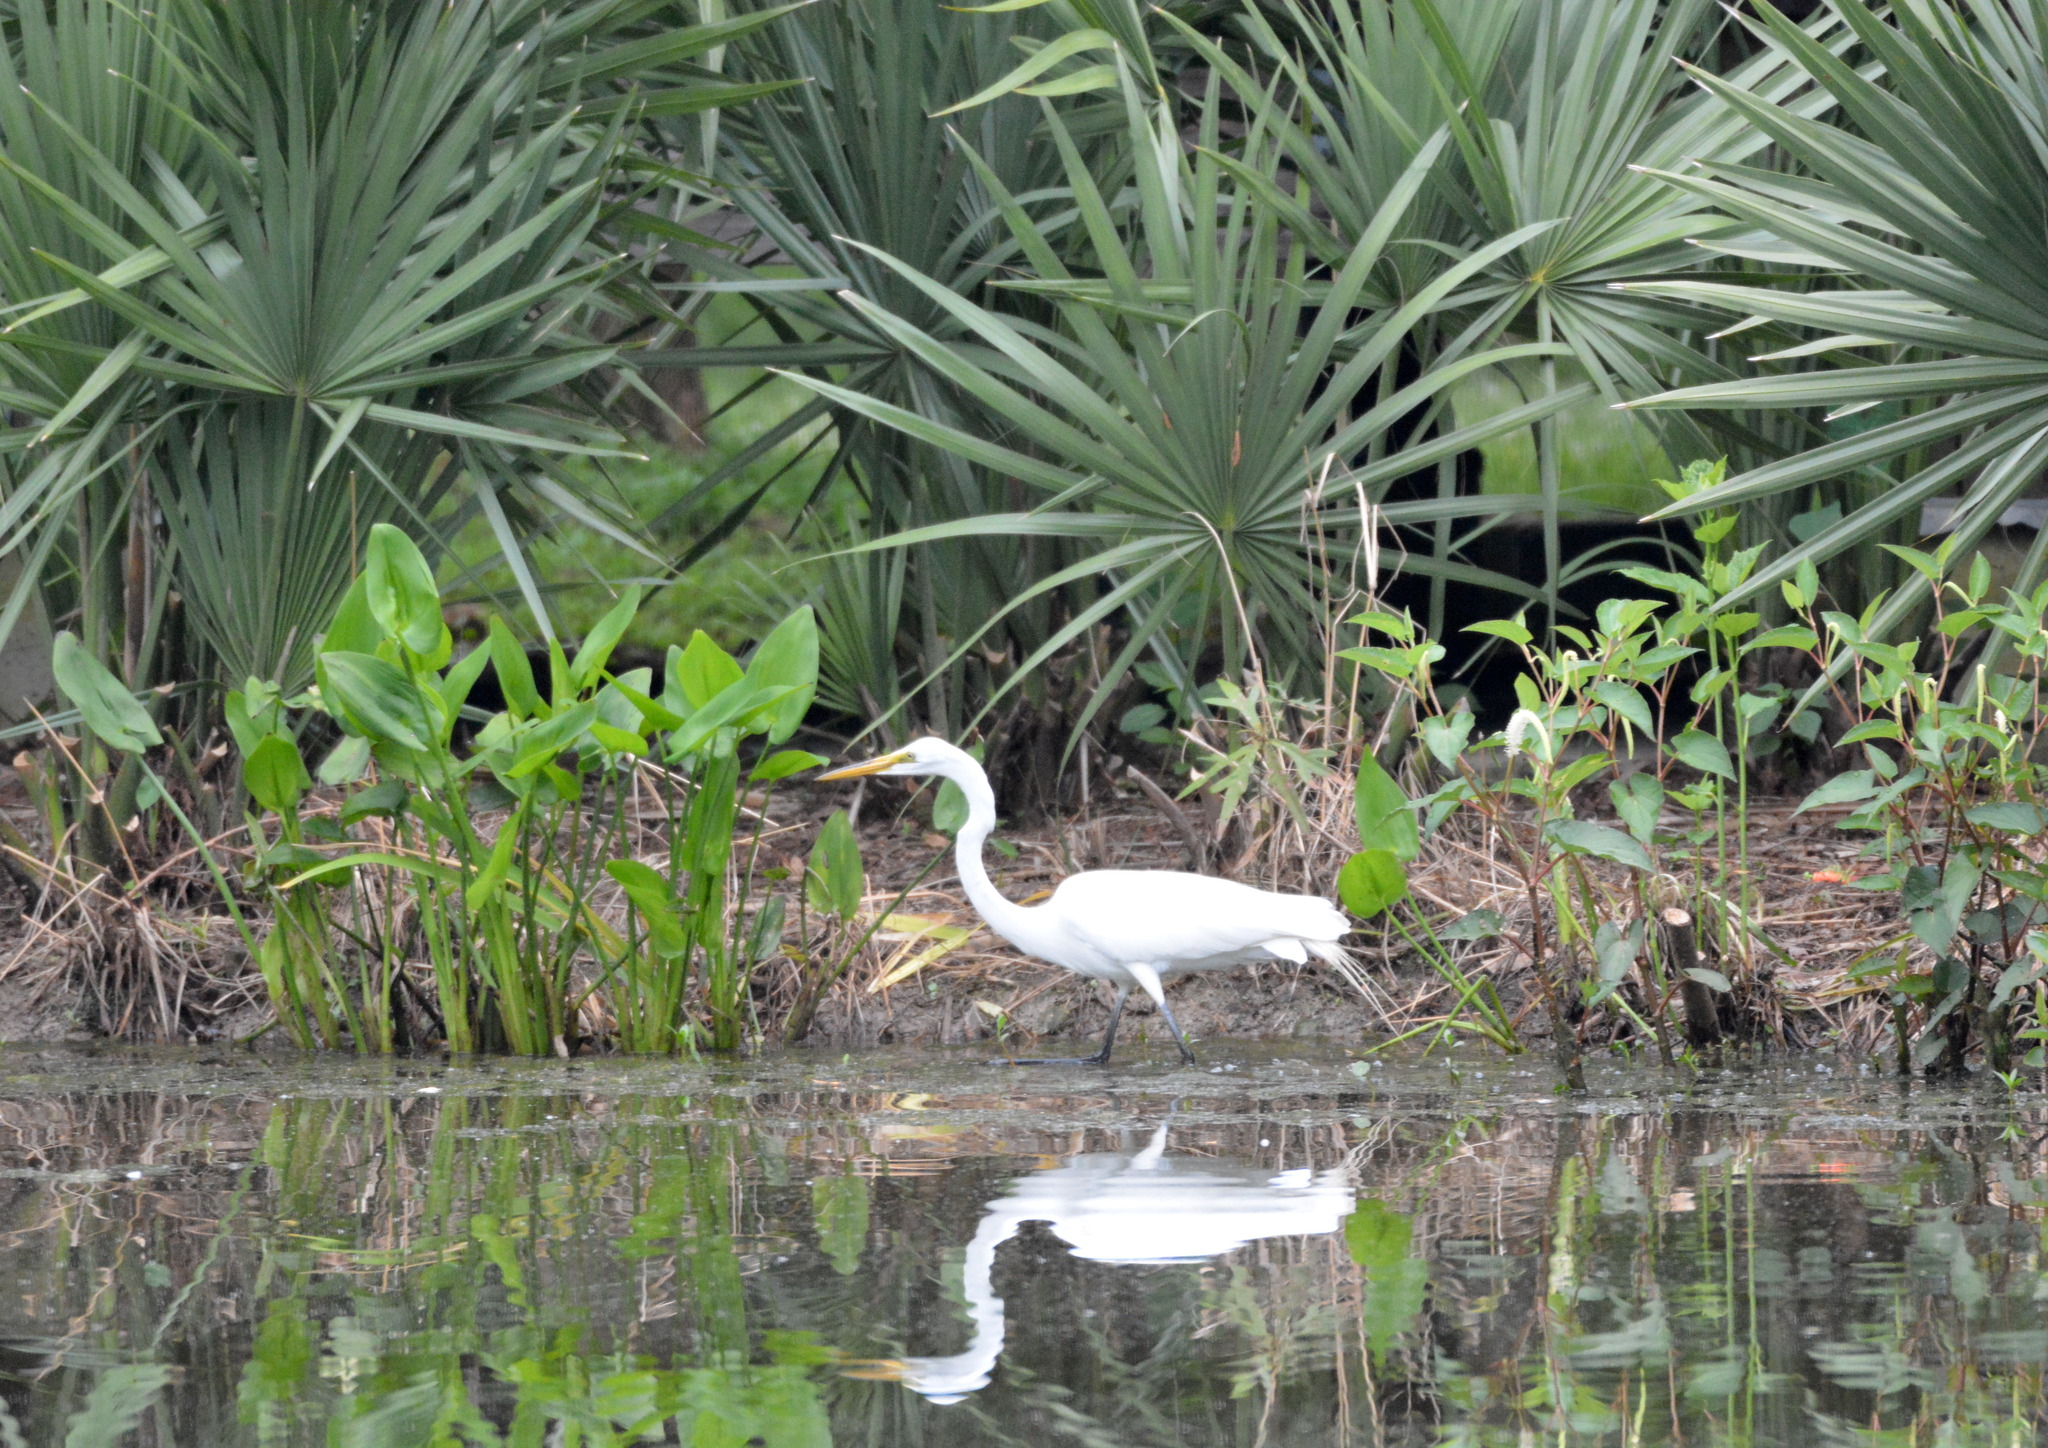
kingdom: Animalia
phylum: Chordata
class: Aves
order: Pelecaniformes
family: Ardeidae
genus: Ardea
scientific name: Ardea alba
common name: Great egret
